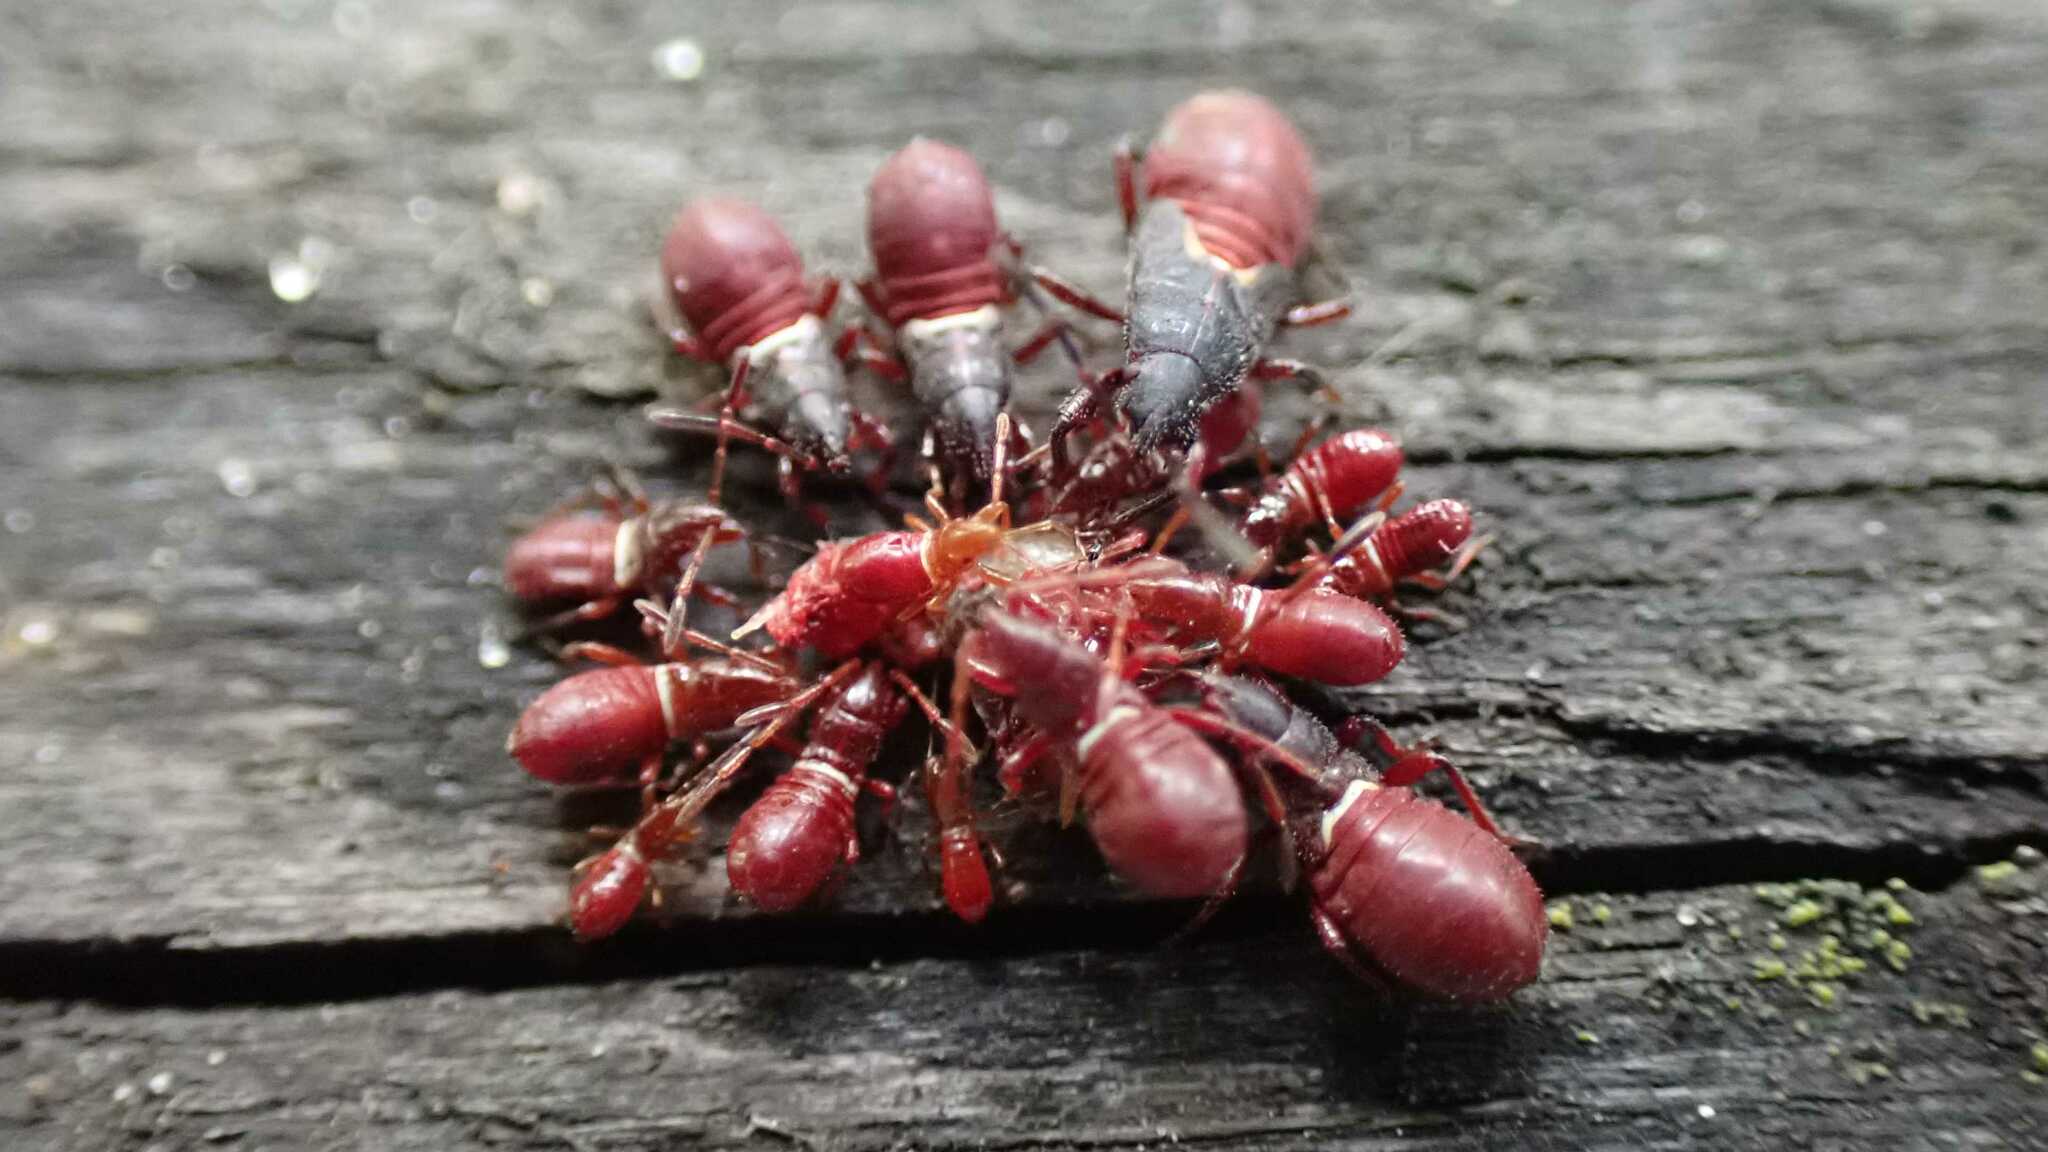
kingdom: Animalia
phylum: Arthropoda
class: Insecta
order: Hemiptera
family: Oxycarenidae
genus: Oxycarenus
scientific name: Oxycarenus lavaterae
